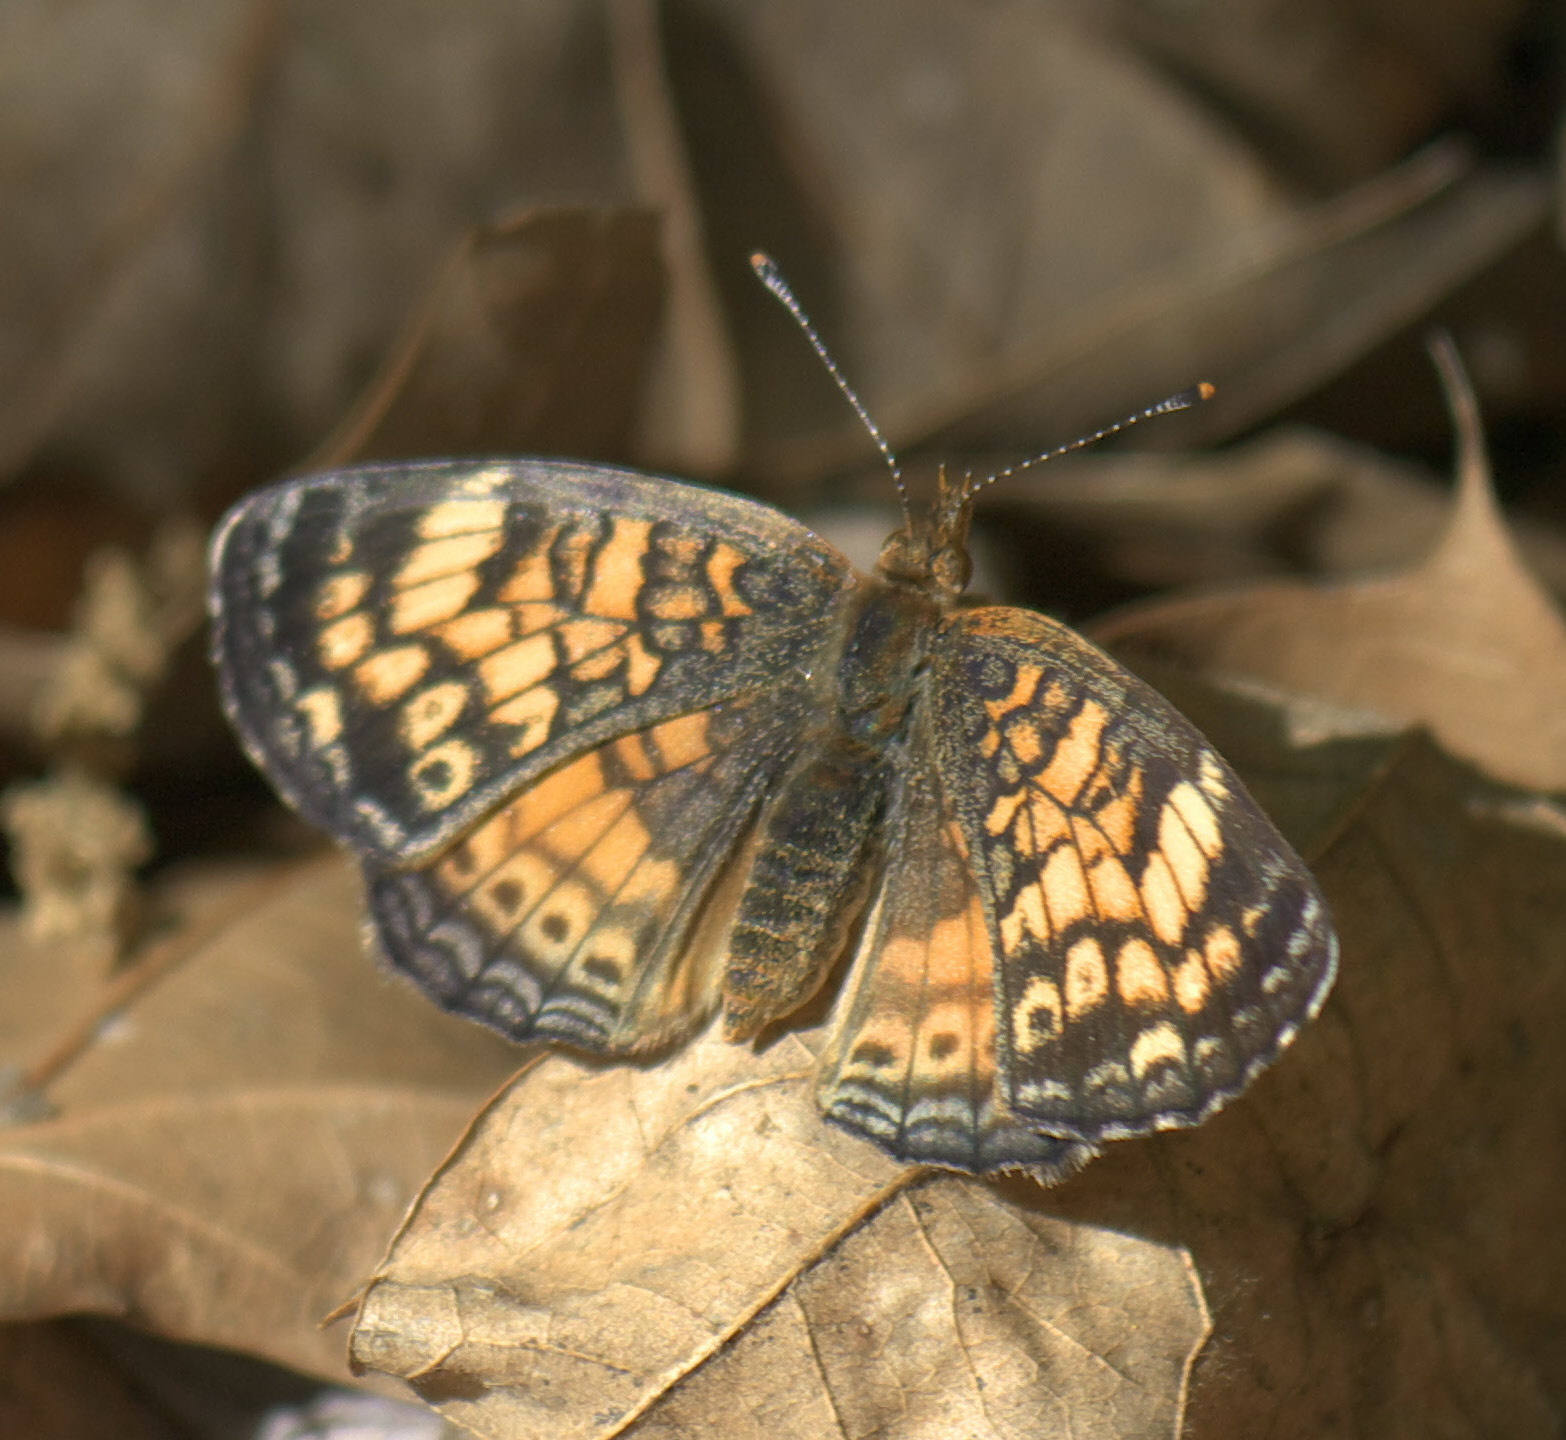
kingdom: Animalia
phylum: Arthropoda
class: Insecta
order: Lepidoptera
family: Nymphalidae
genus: Phyciodes
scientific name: Phyciodes tharos
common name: Pearl crescent
